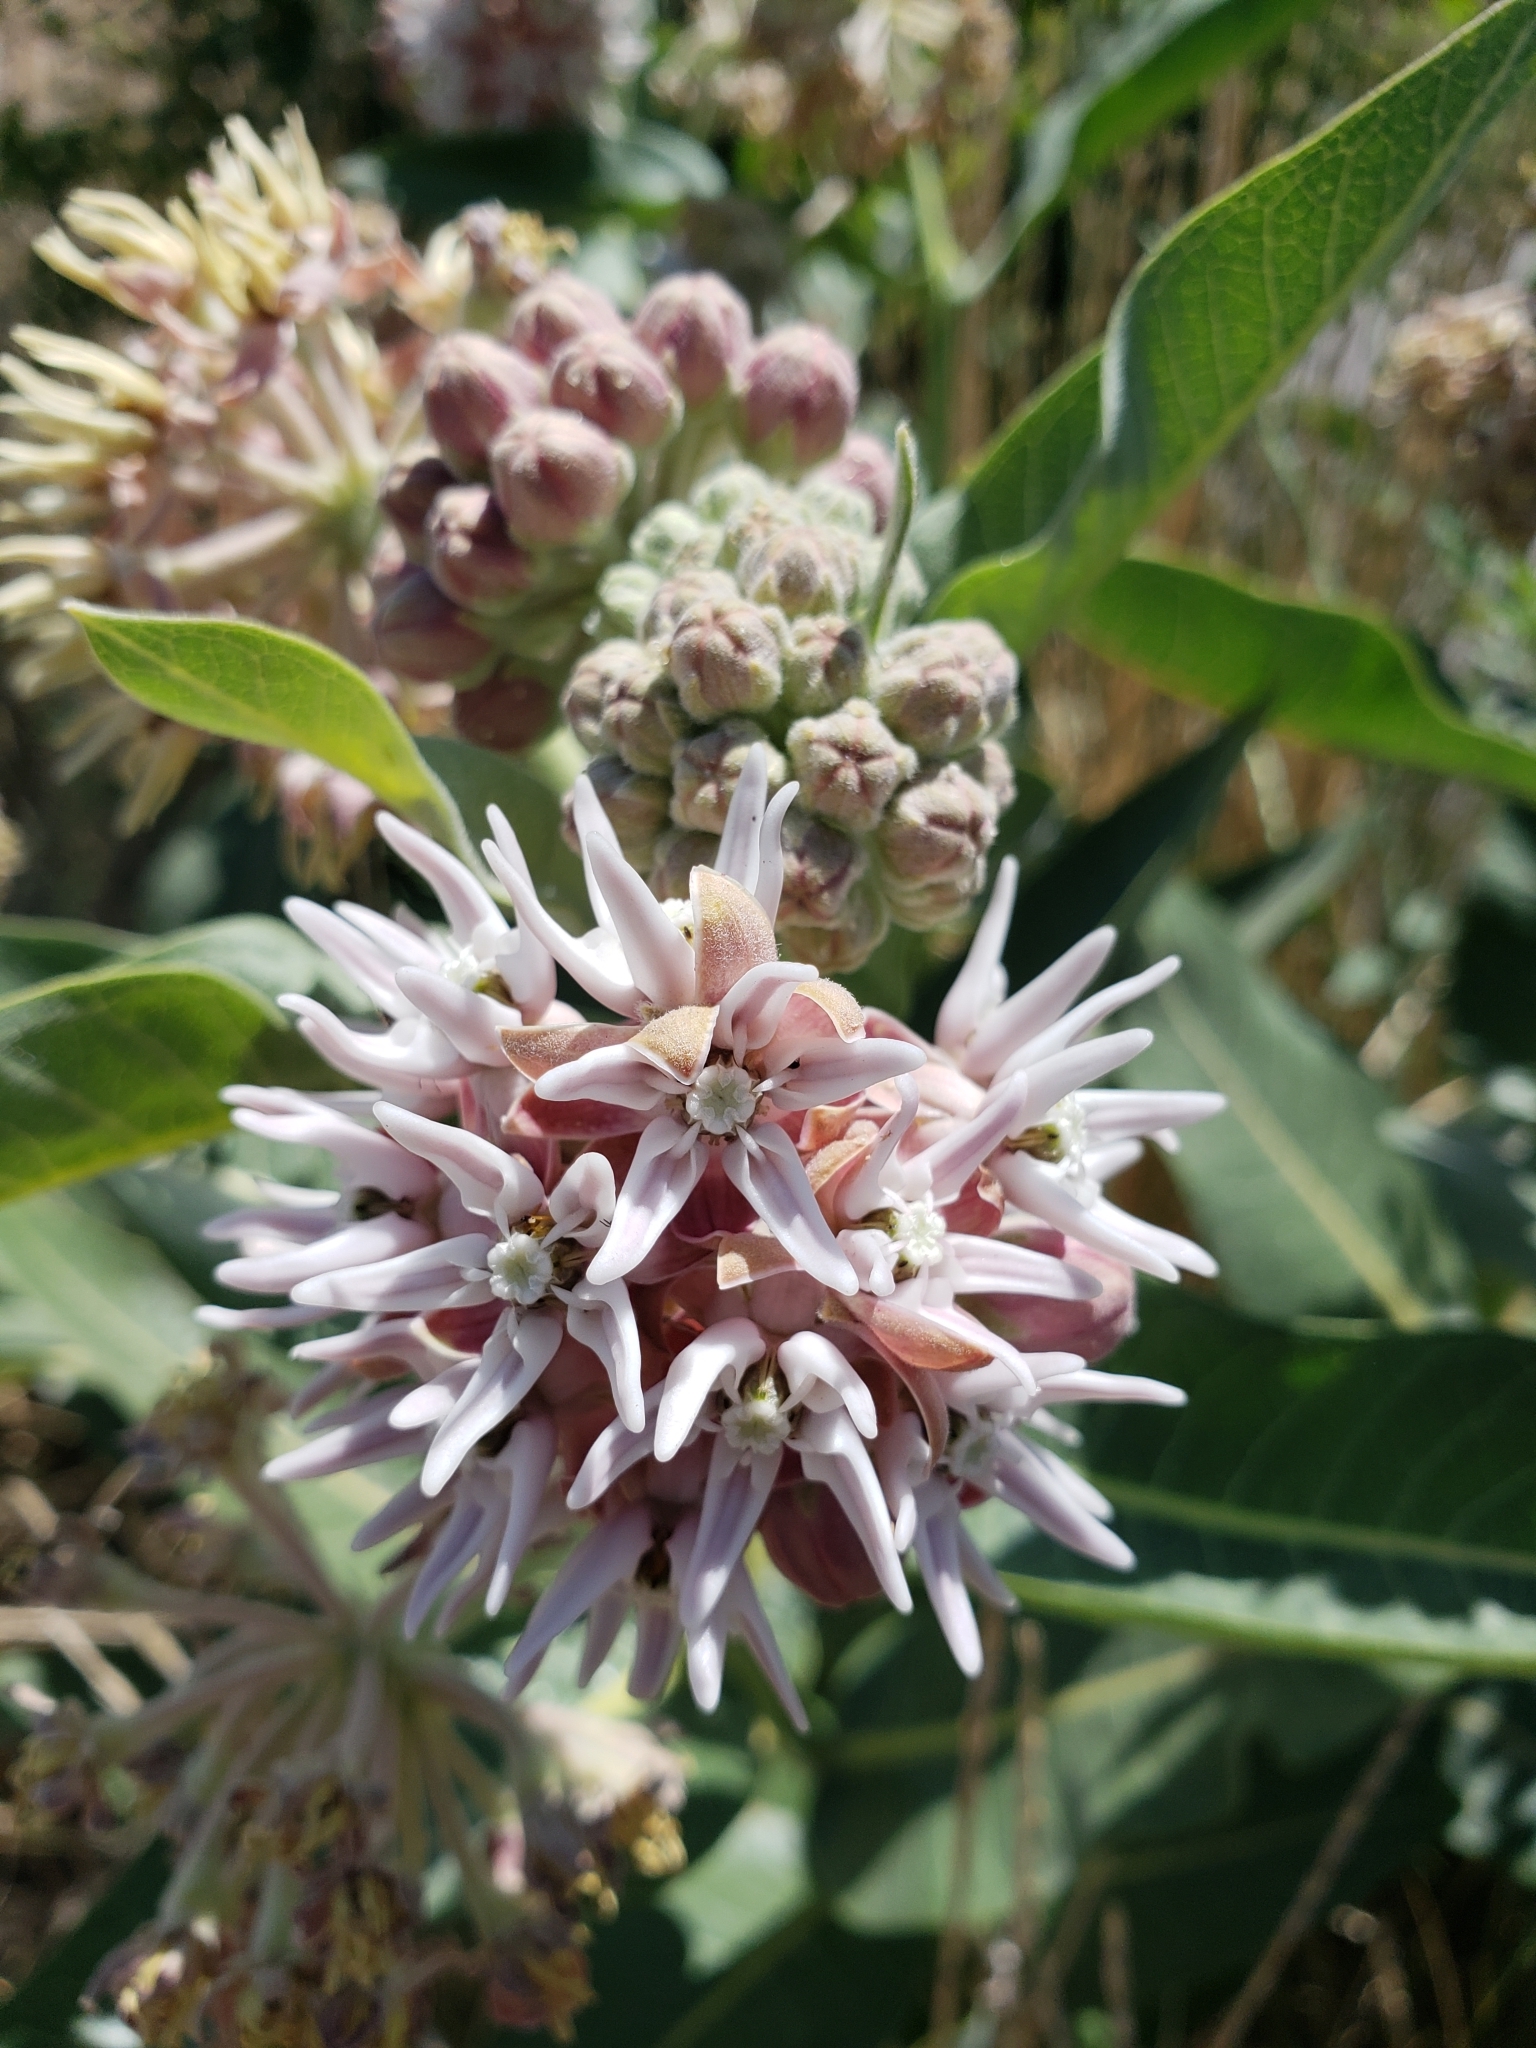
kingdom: Plantae
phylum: Tracheophyta
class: Magnoliopsida
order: Gentianales
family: Apocynaceae
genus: Asclepias
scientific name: Asclepias speciosa
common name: Showy milkweed
